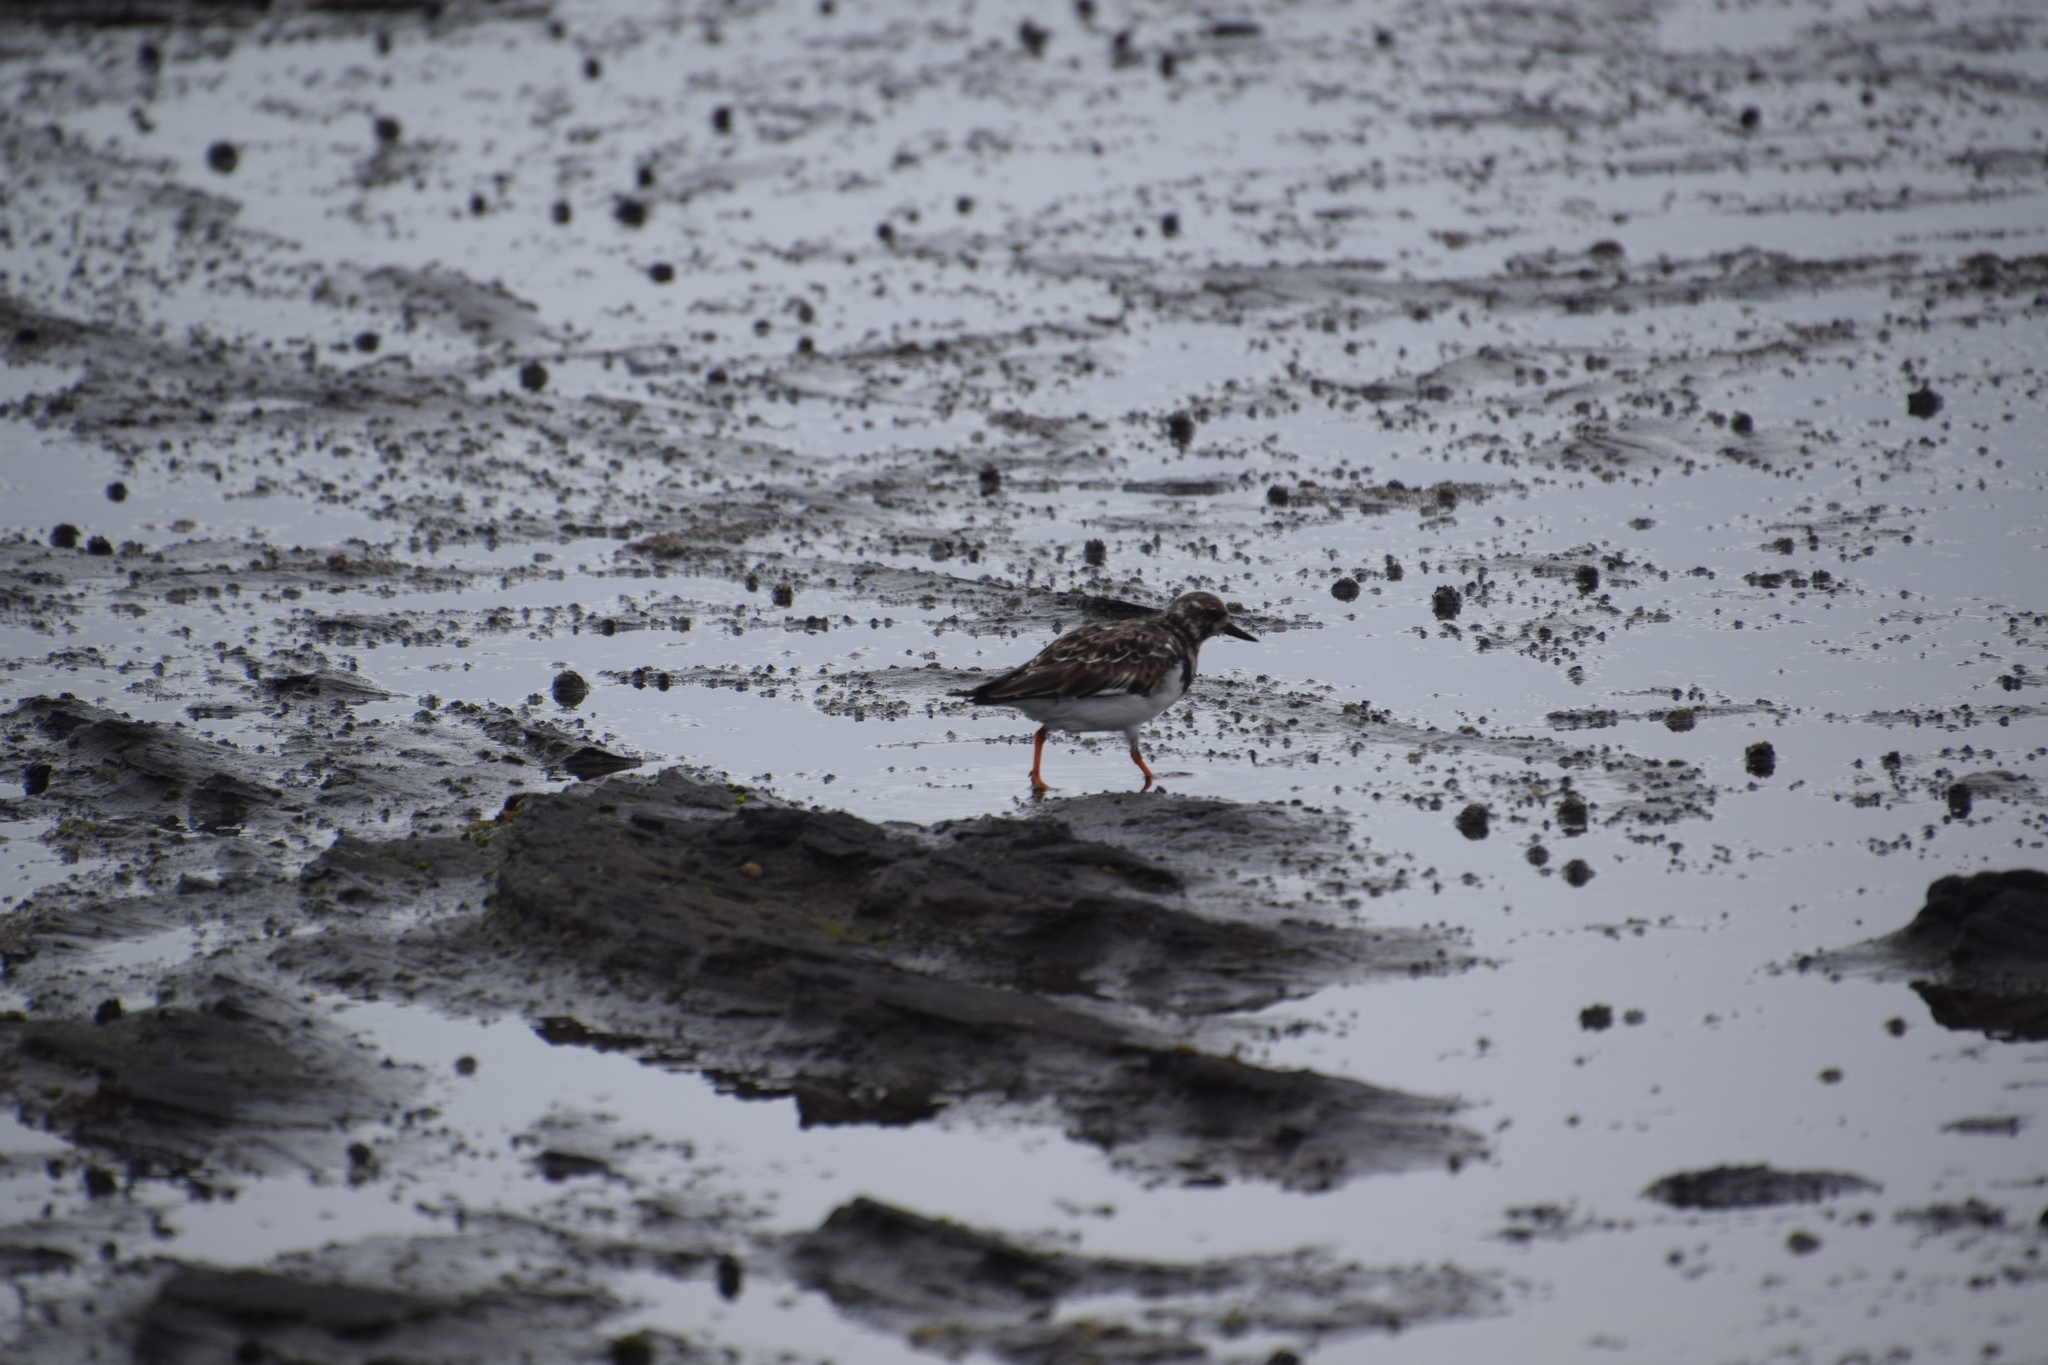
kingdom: Animalia
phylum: Chordata
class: Aves
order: Charadriiformes
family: Scolopacidae
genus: Arenaria
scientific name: Arenaria interpres
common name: Ruddy turnstone
